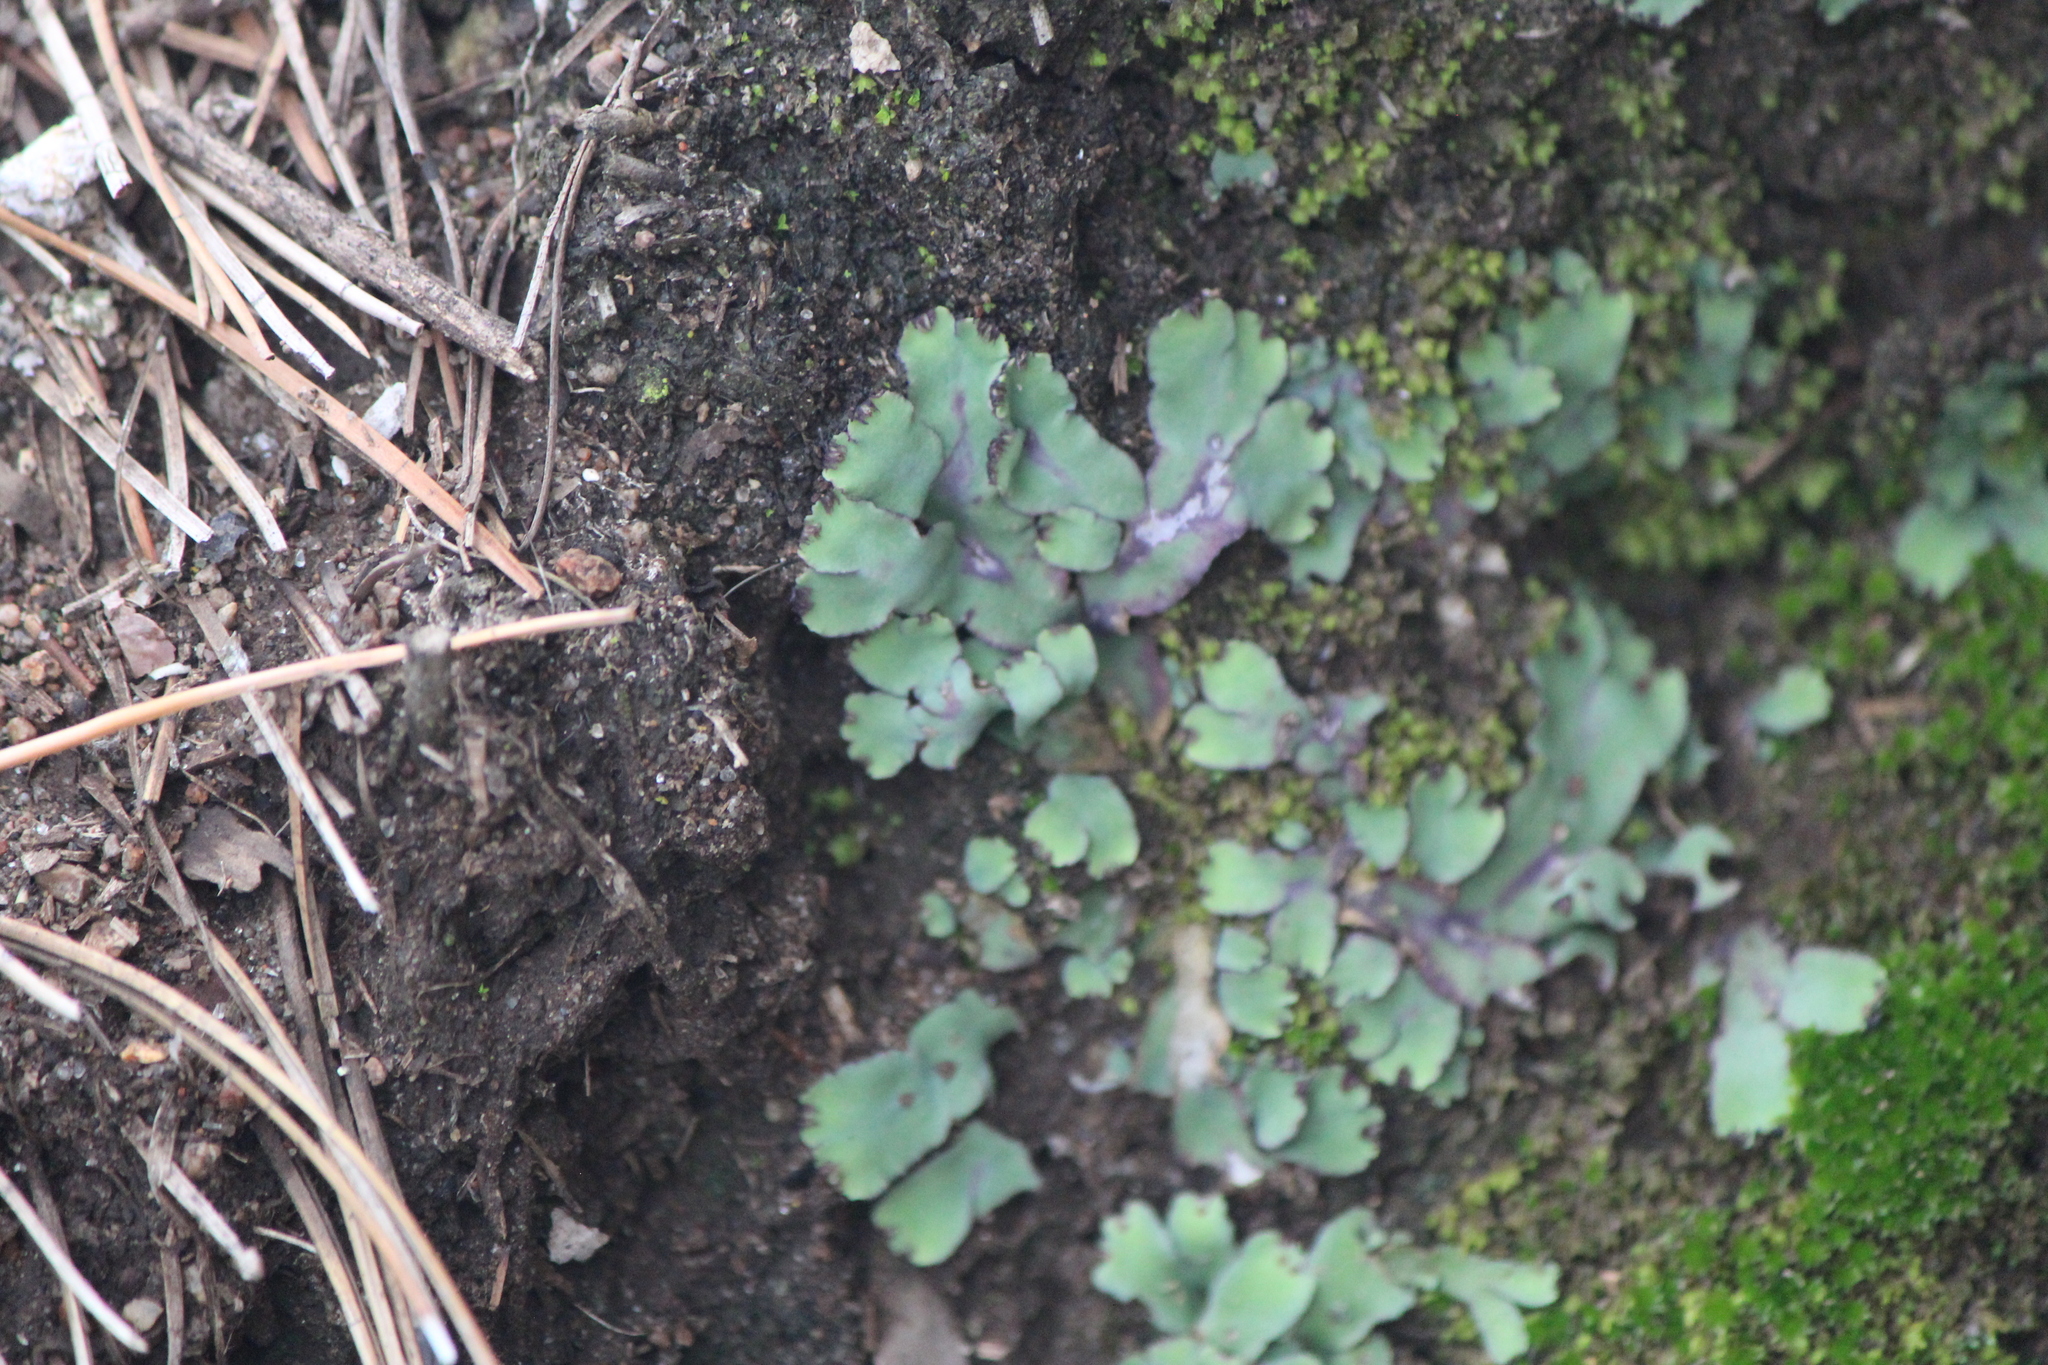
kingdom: Plantae
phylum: Marchantiophyta
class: Marchantiopsida
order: Marchantiales
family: Aytoniaceae
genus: Plagiochasma
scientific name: Plagiochasma rupestre
